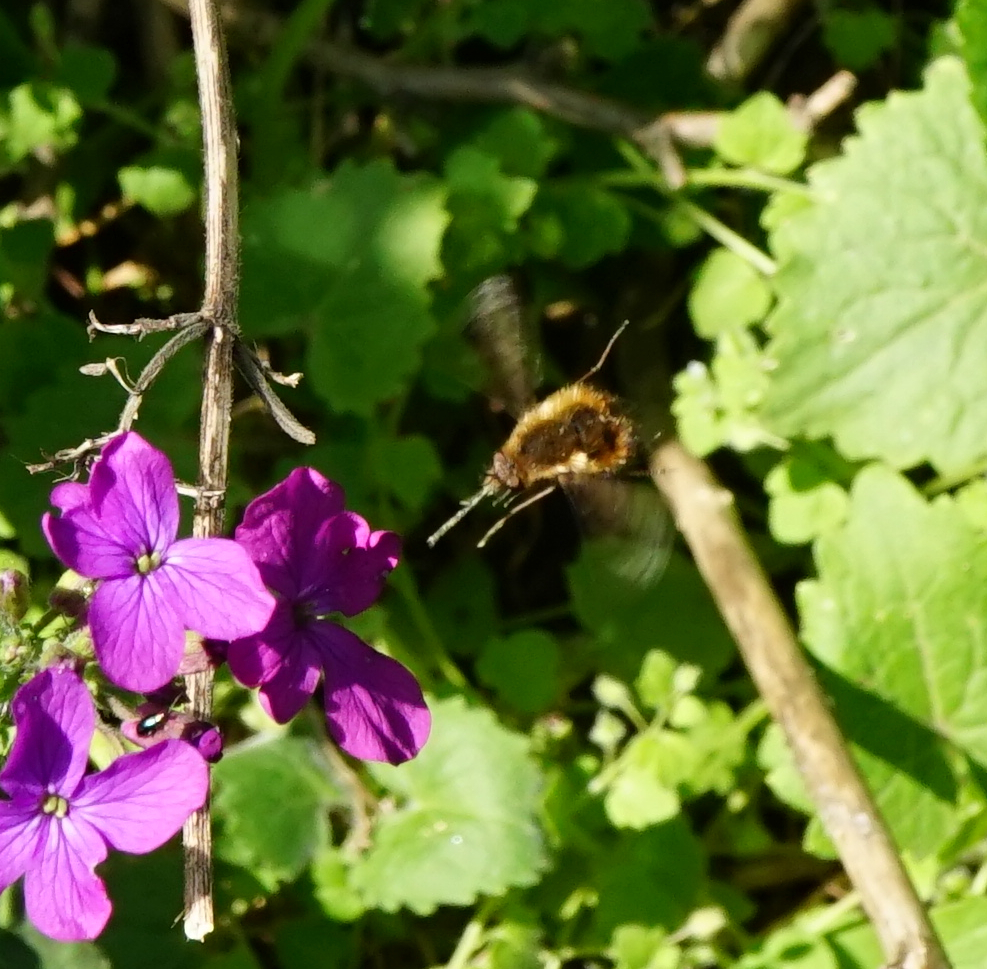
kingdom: Animalia
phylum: Arthropoda
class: Insecta
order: Diptera
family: Bombyliidae
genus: Bombylius
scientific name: Bombylius discolor
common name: Dotted bee-fly
